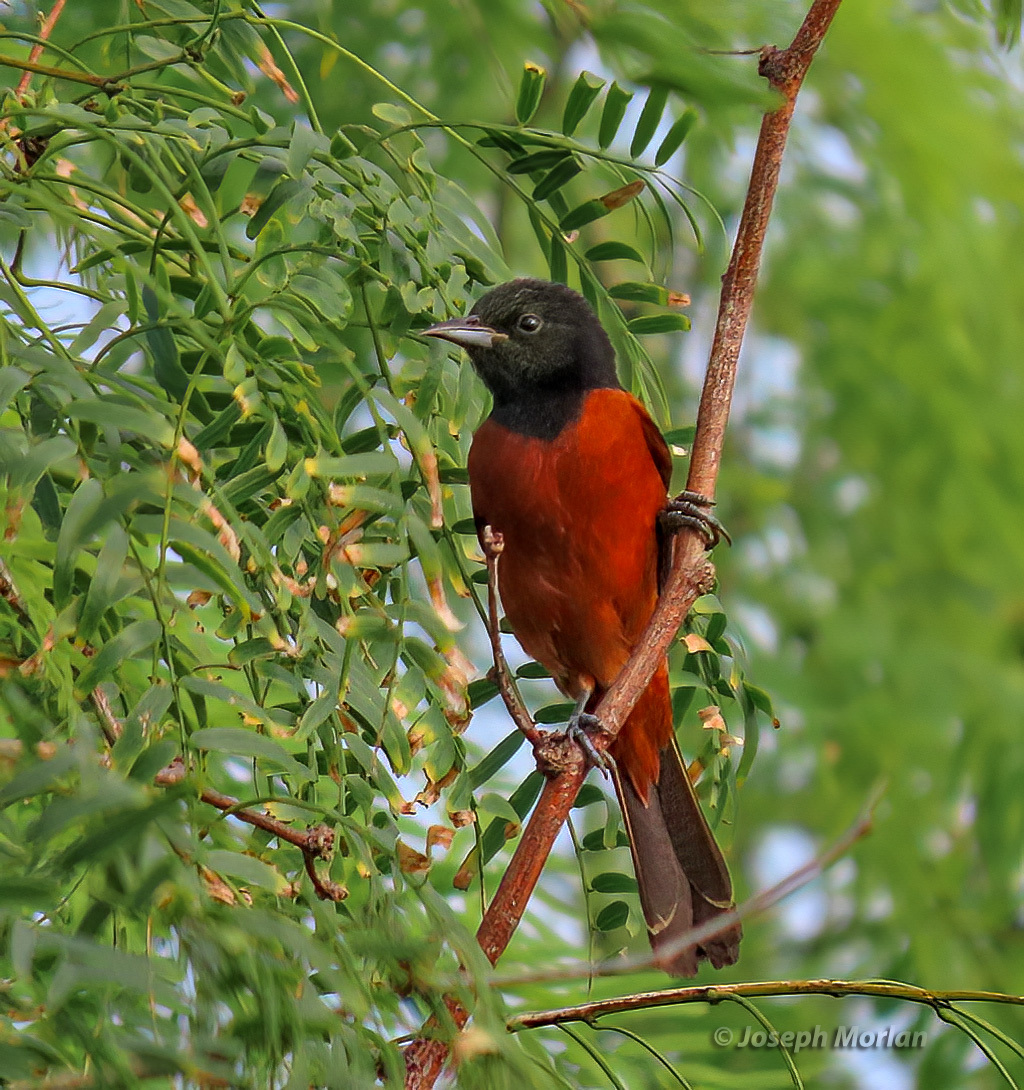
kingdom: Animalia
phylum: Chordata
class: Aves
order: Passeriformes
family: Icteridae
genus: Icterus
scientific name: Icterus spurius
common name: Orchard oriole
